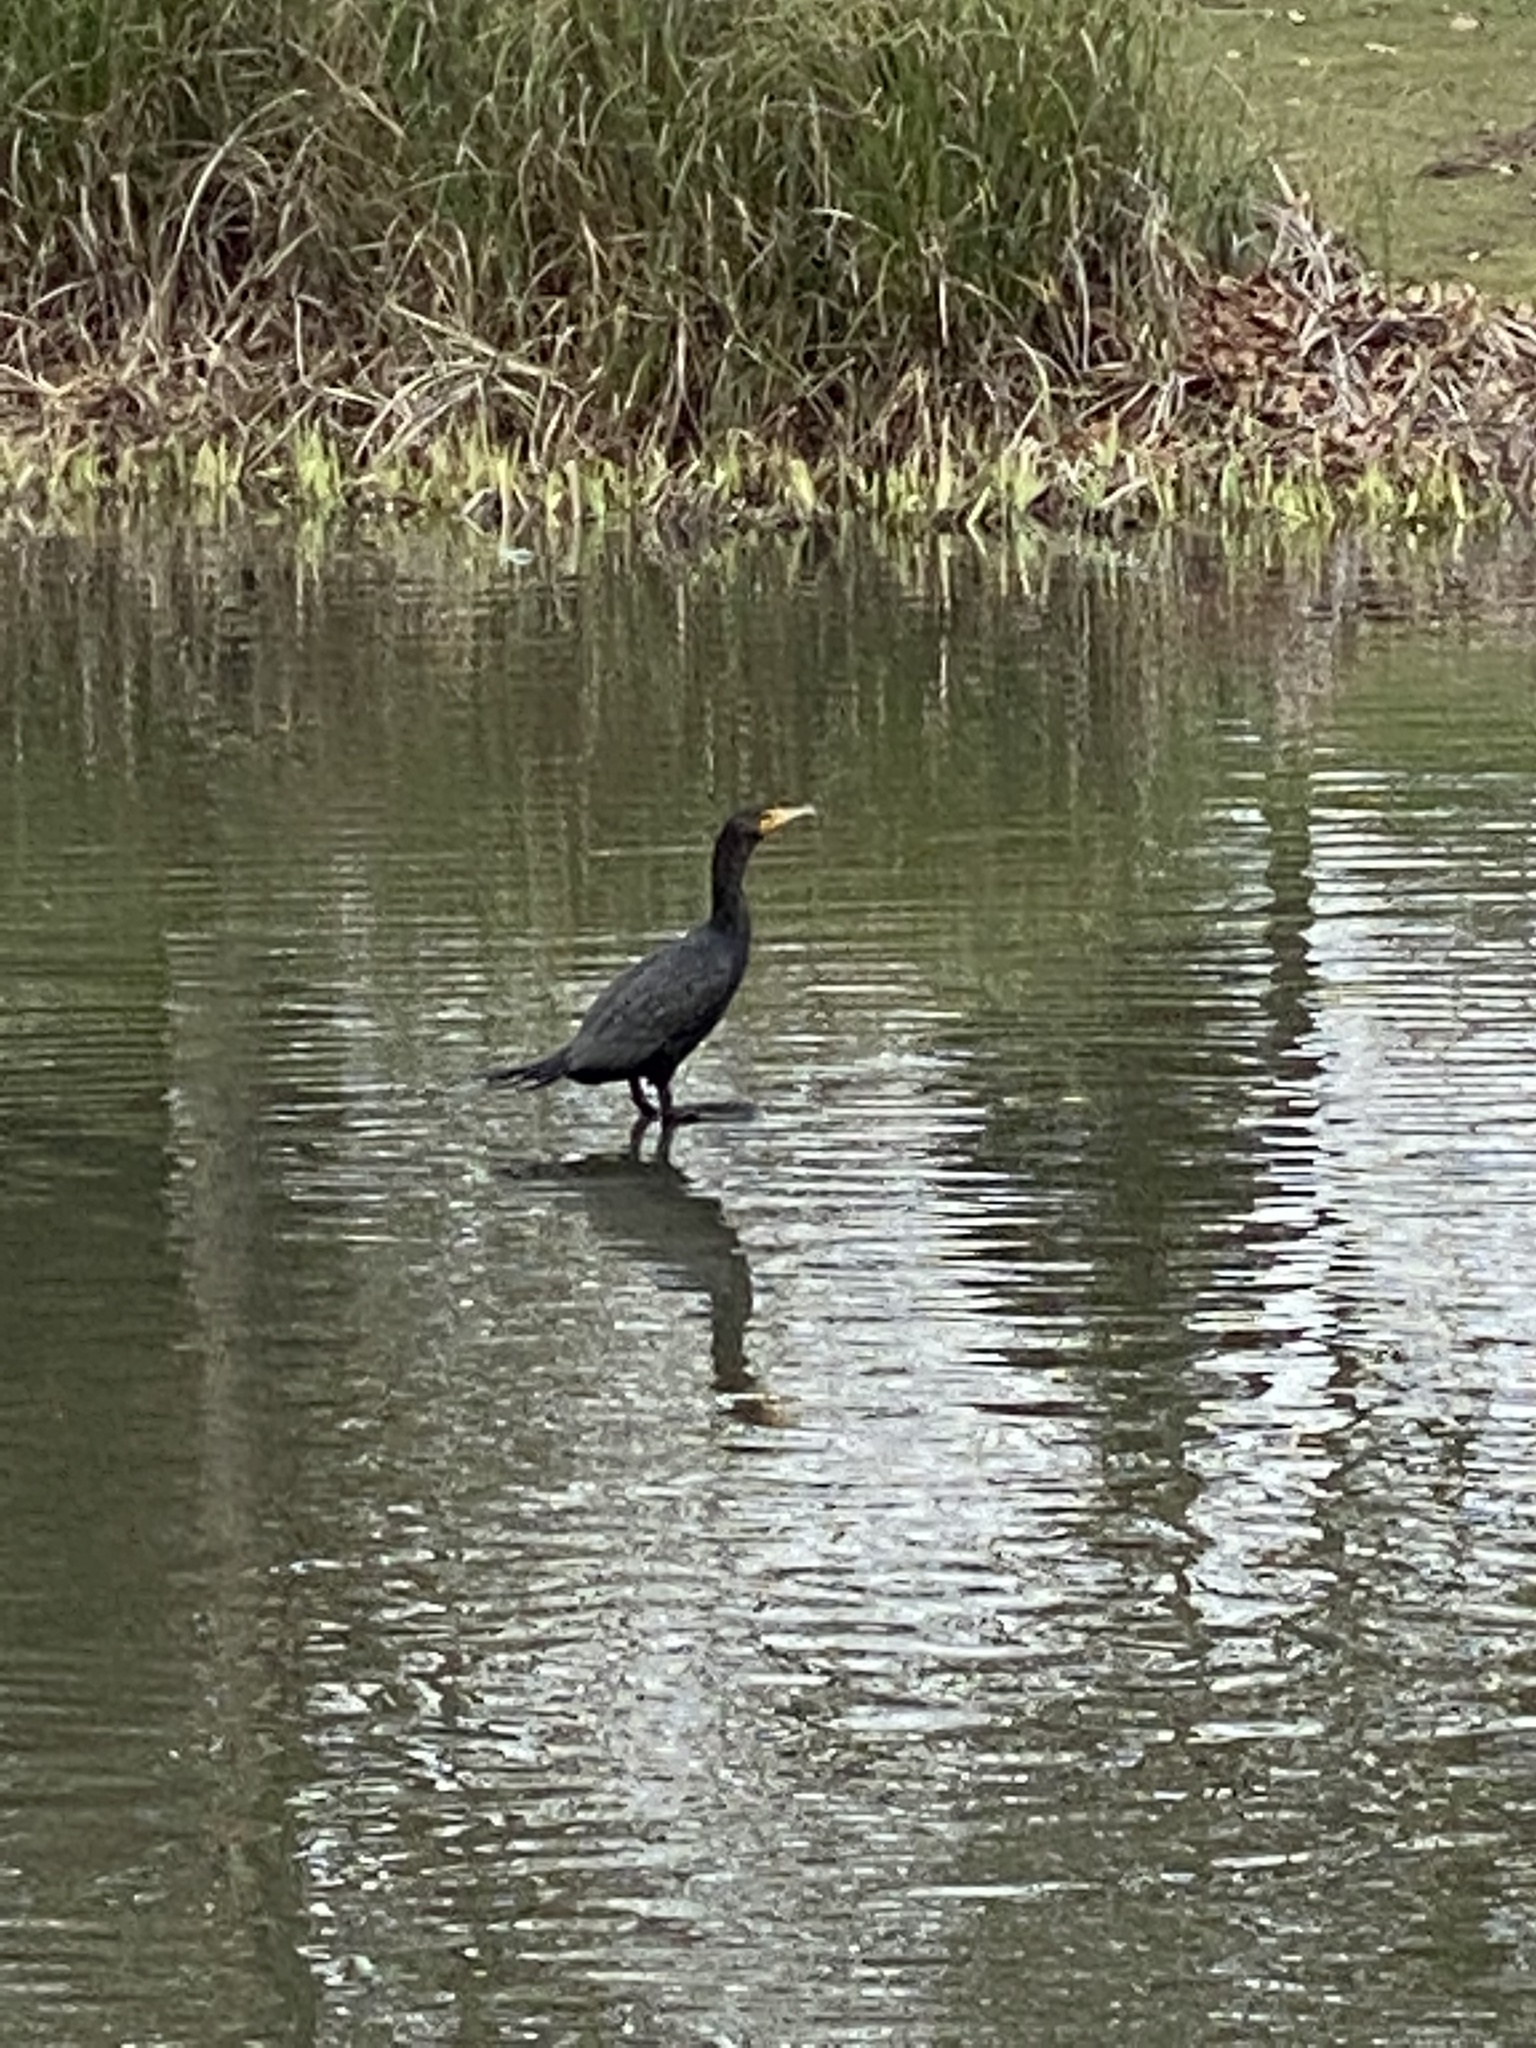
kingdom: Animalia
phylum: Chordata
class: Aves
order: Suliformes
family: Phalacrocoracidae
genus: Phalacrocorax
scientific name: Phalacrocorax auritus
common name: Double-crested cormorant
